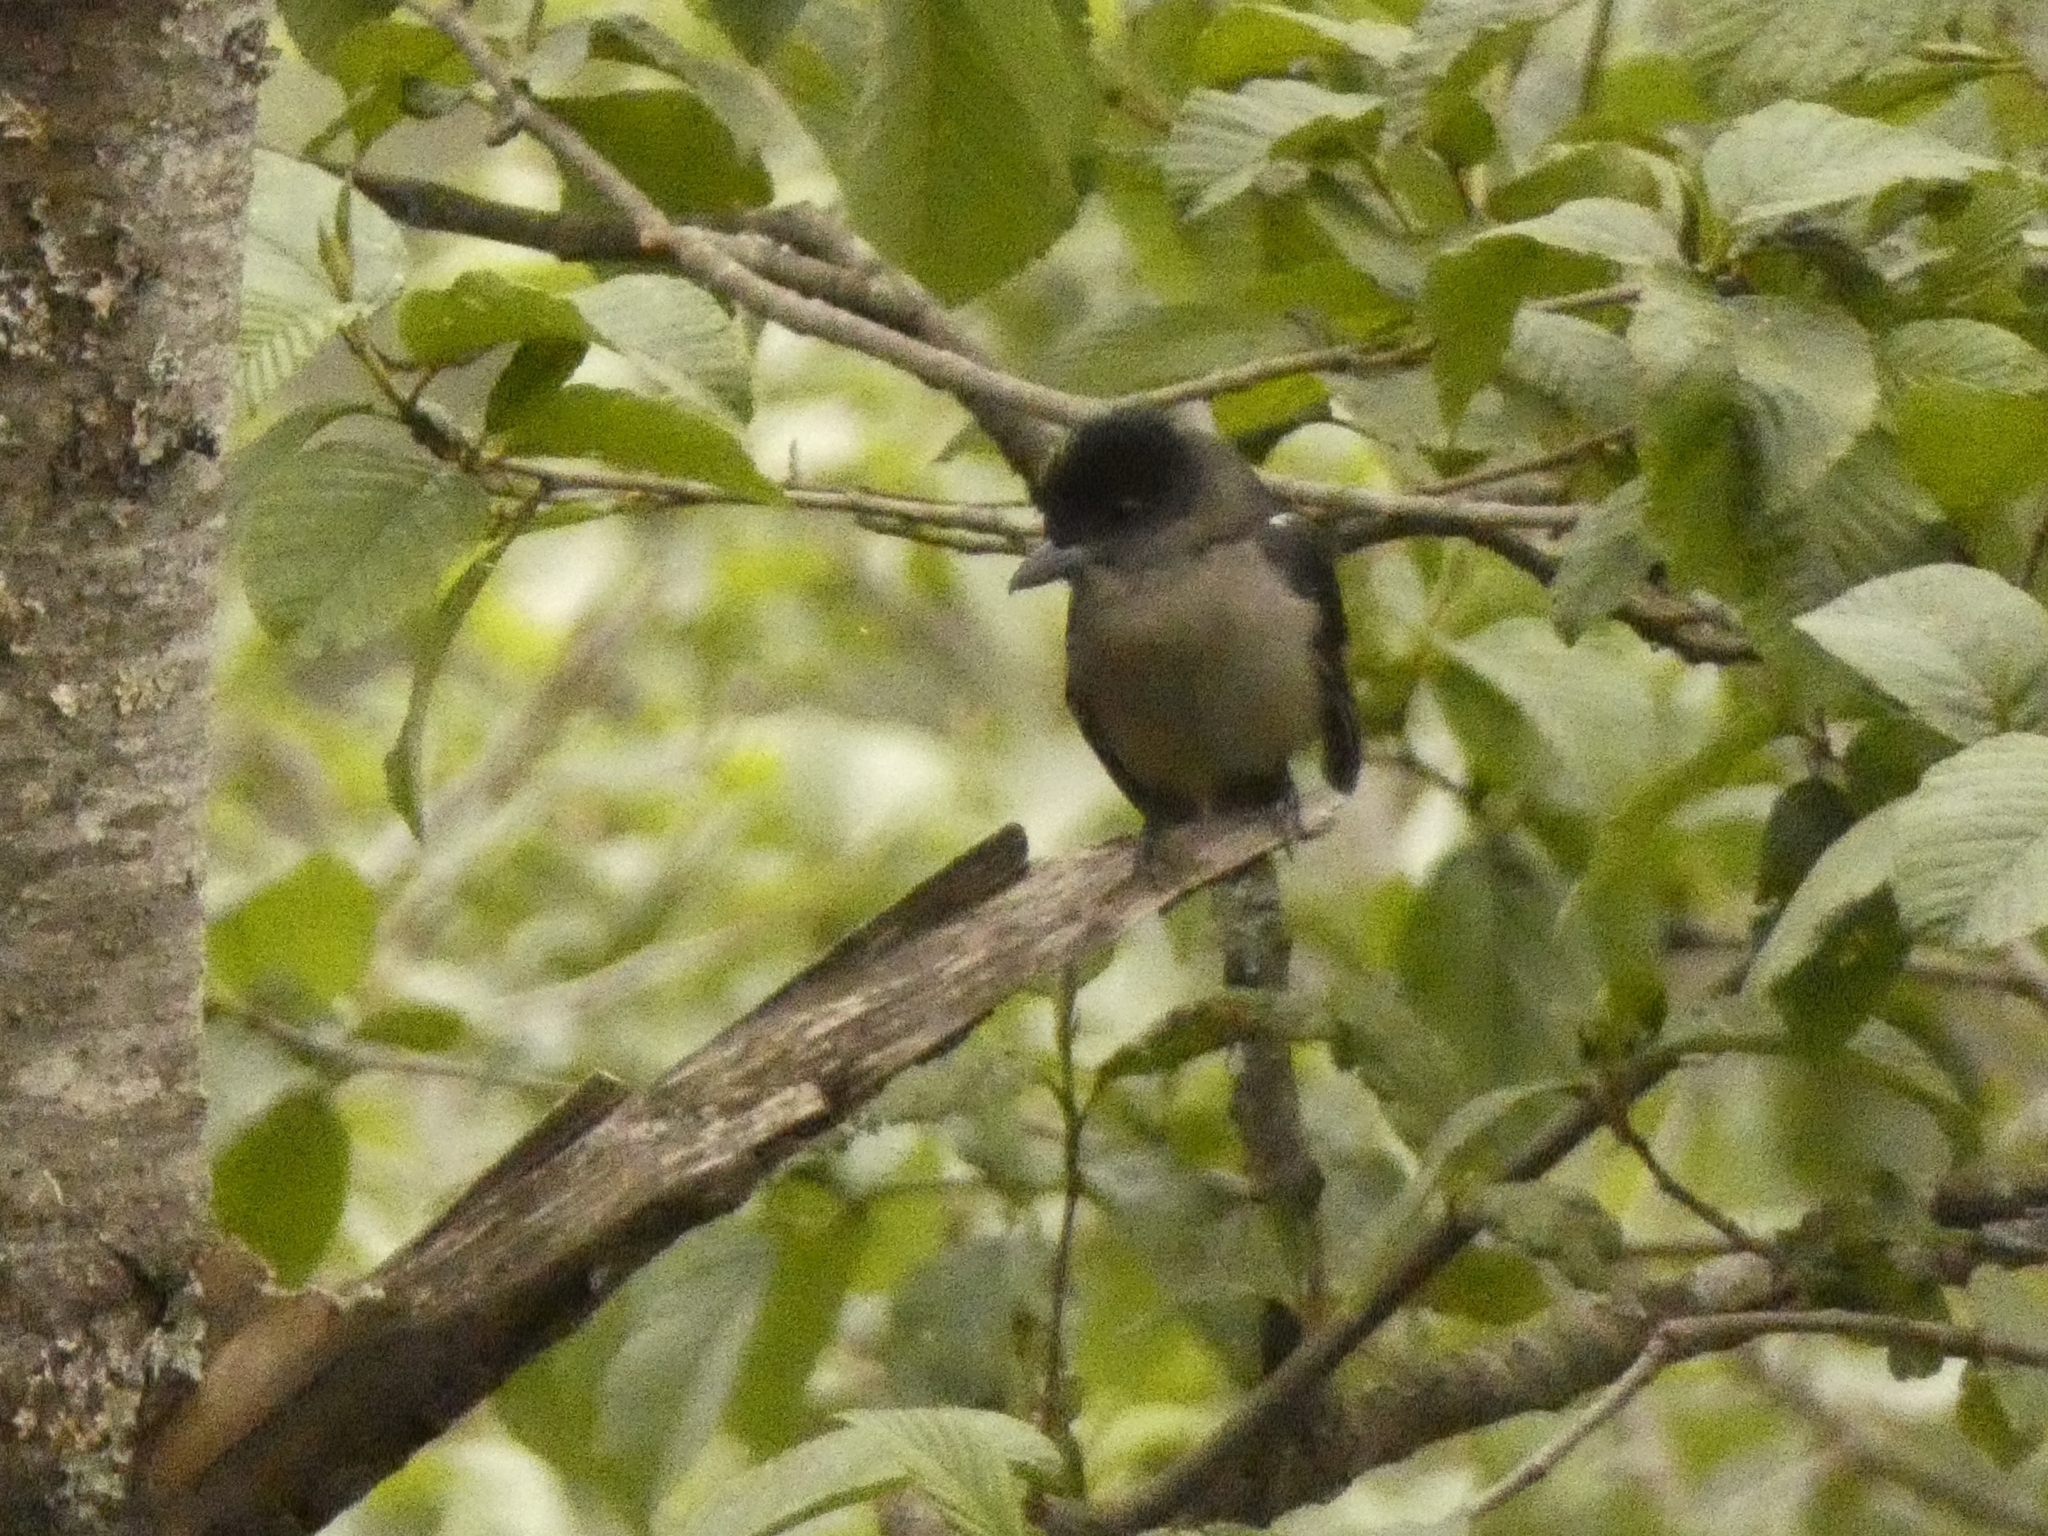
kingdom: Animalia
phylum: Chordata
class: Aves
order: Passeriformes
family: Cotingidae
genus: Pachyramphus
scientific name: Pachyramphus validus
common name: Crested becard
